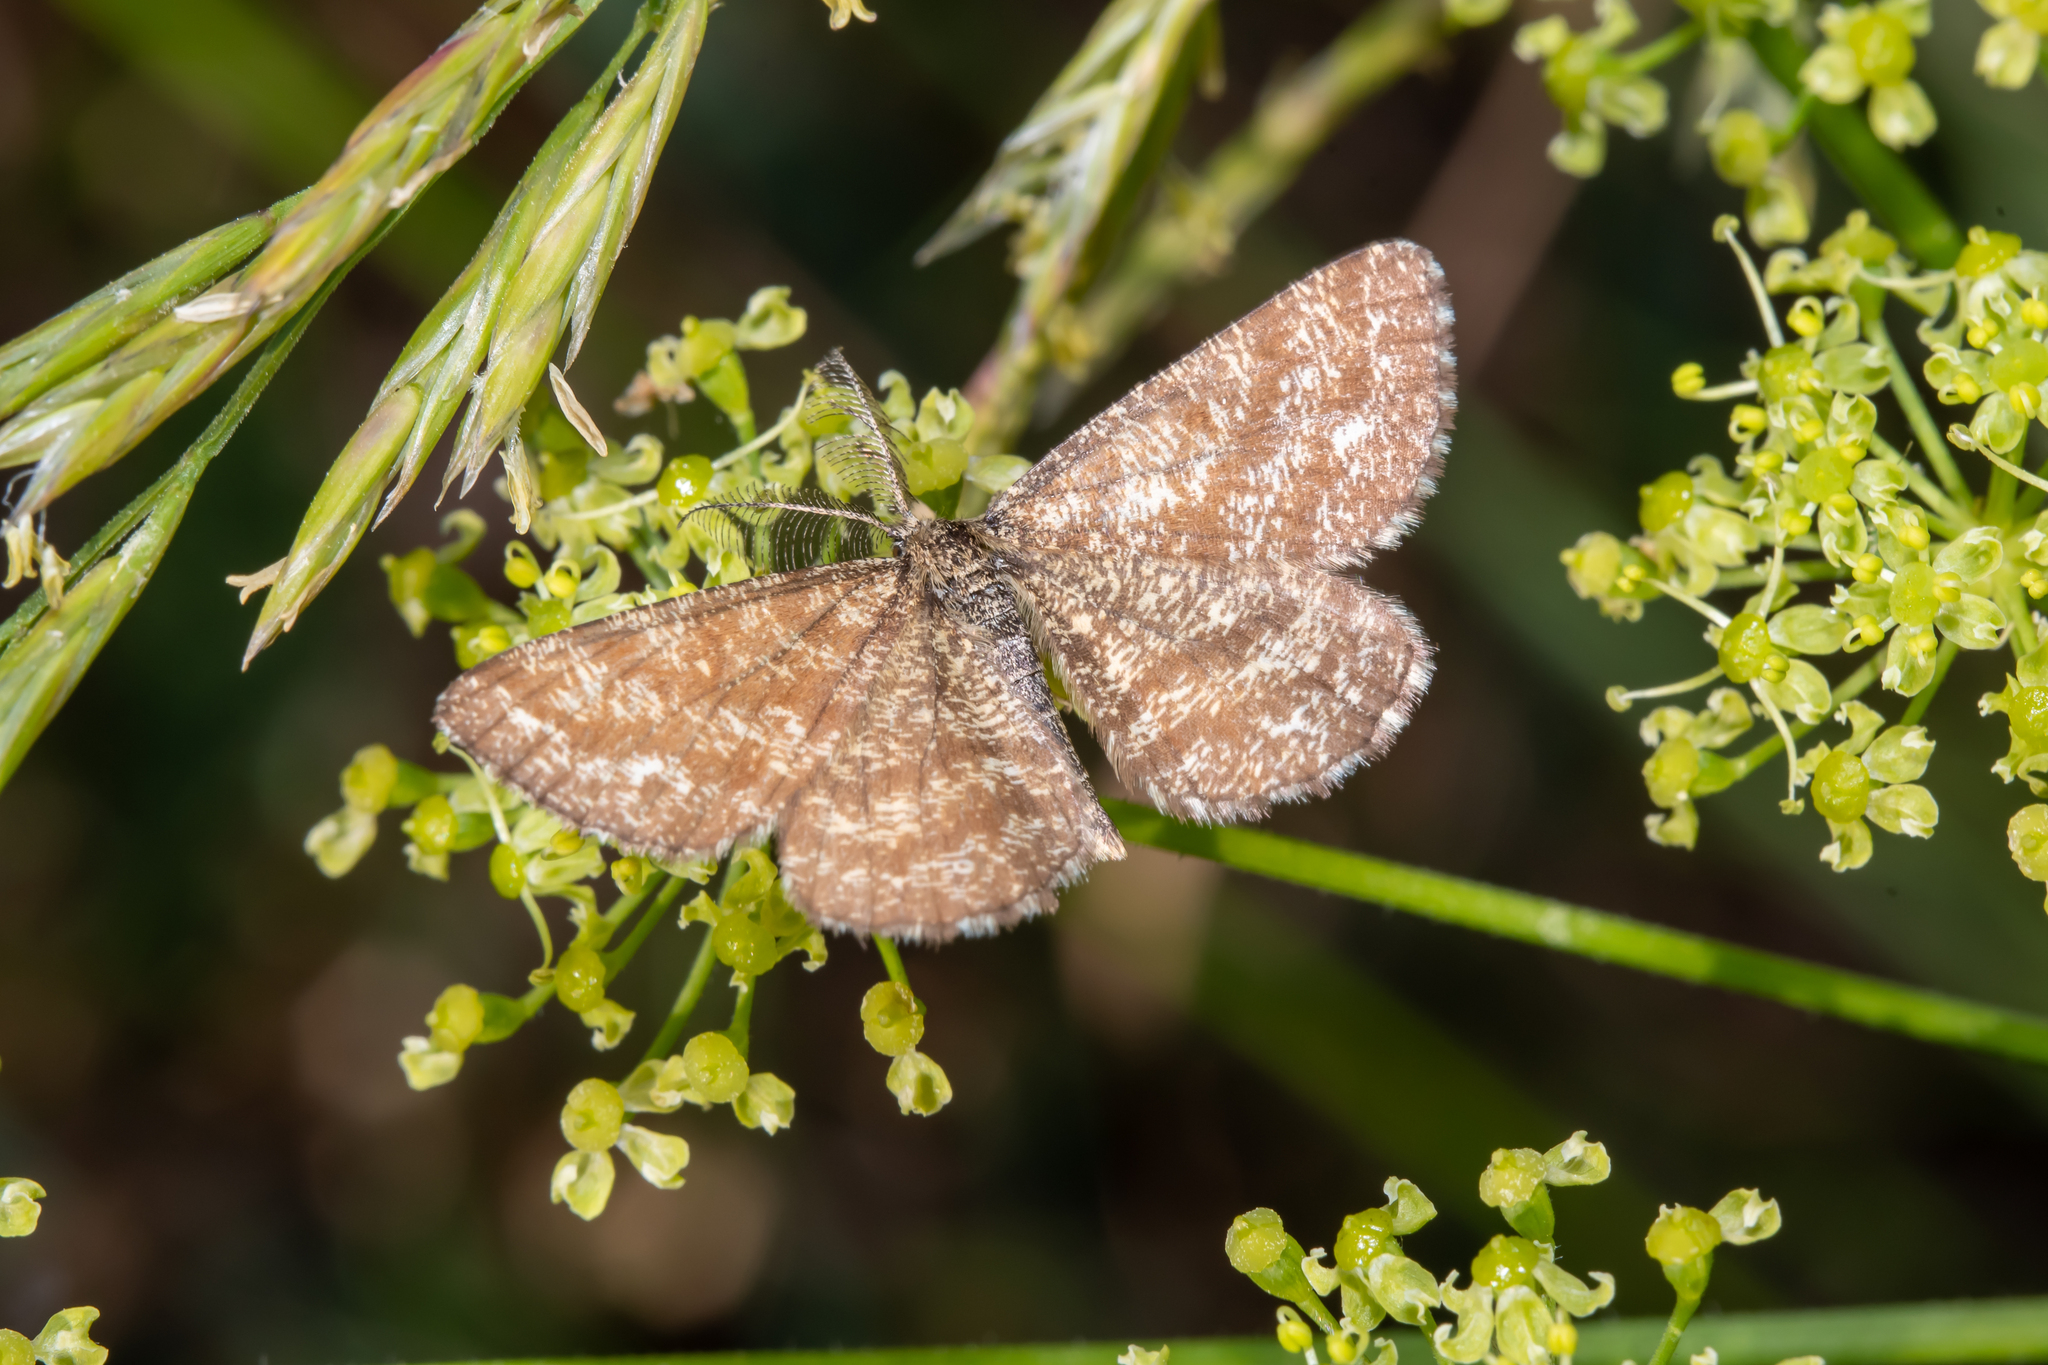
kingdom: Animalia
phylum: Arthropoda
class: Insecta
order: Lepidoptera
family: Geometridae
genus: Ematurga
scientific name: Ematurga atomaria
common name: Common heath
